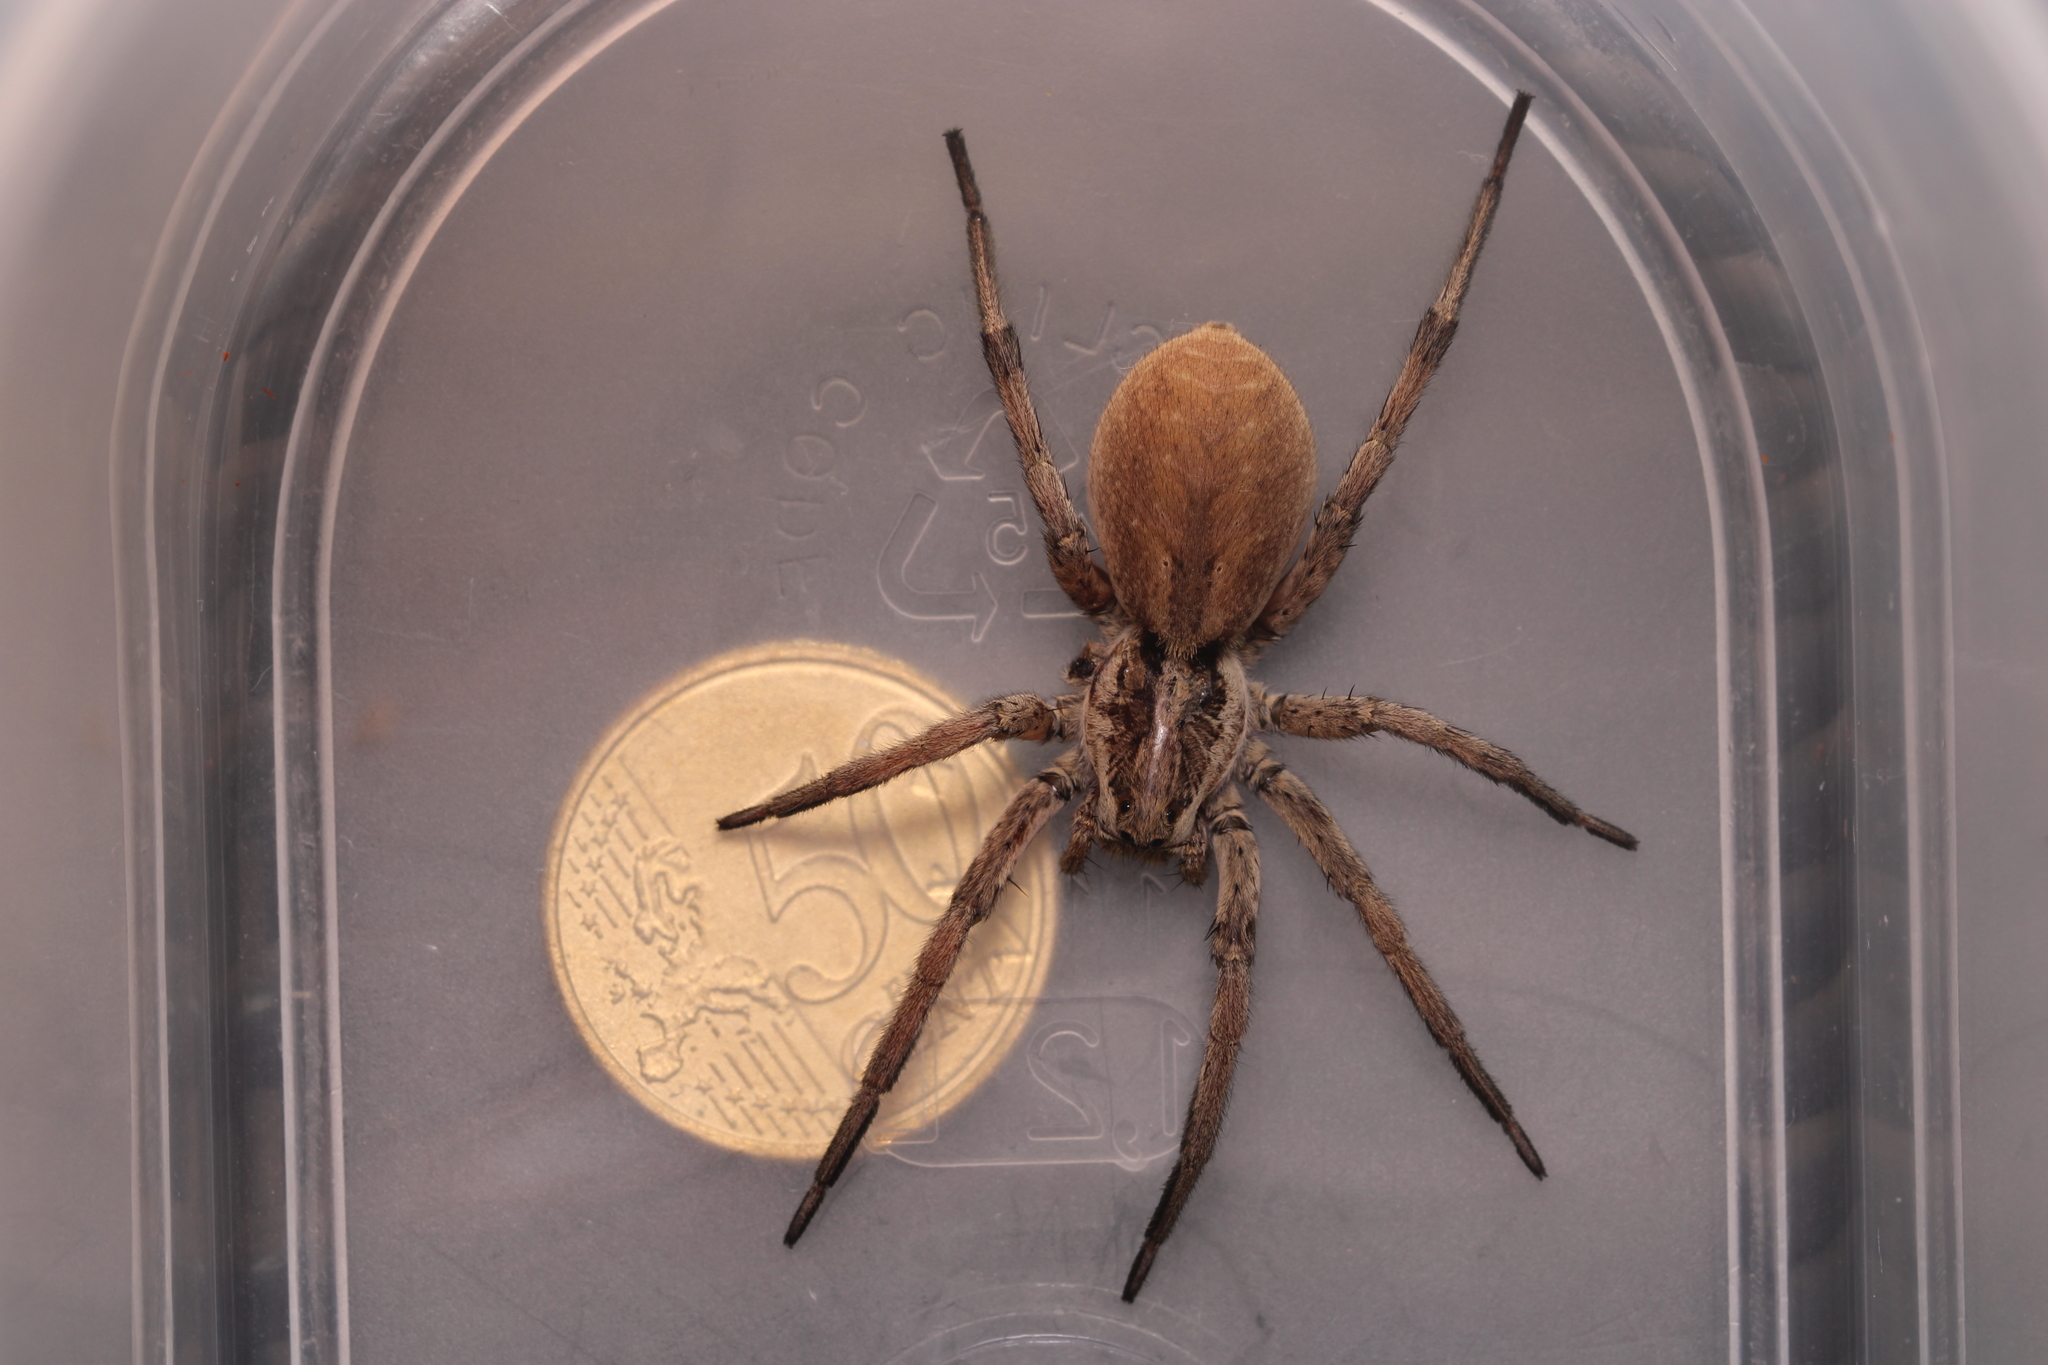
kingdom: Animalia
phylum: Arthropoda
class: Arachnida
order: Araneae
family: Lycosidae
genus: Hogna
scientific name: Hogna radiata
